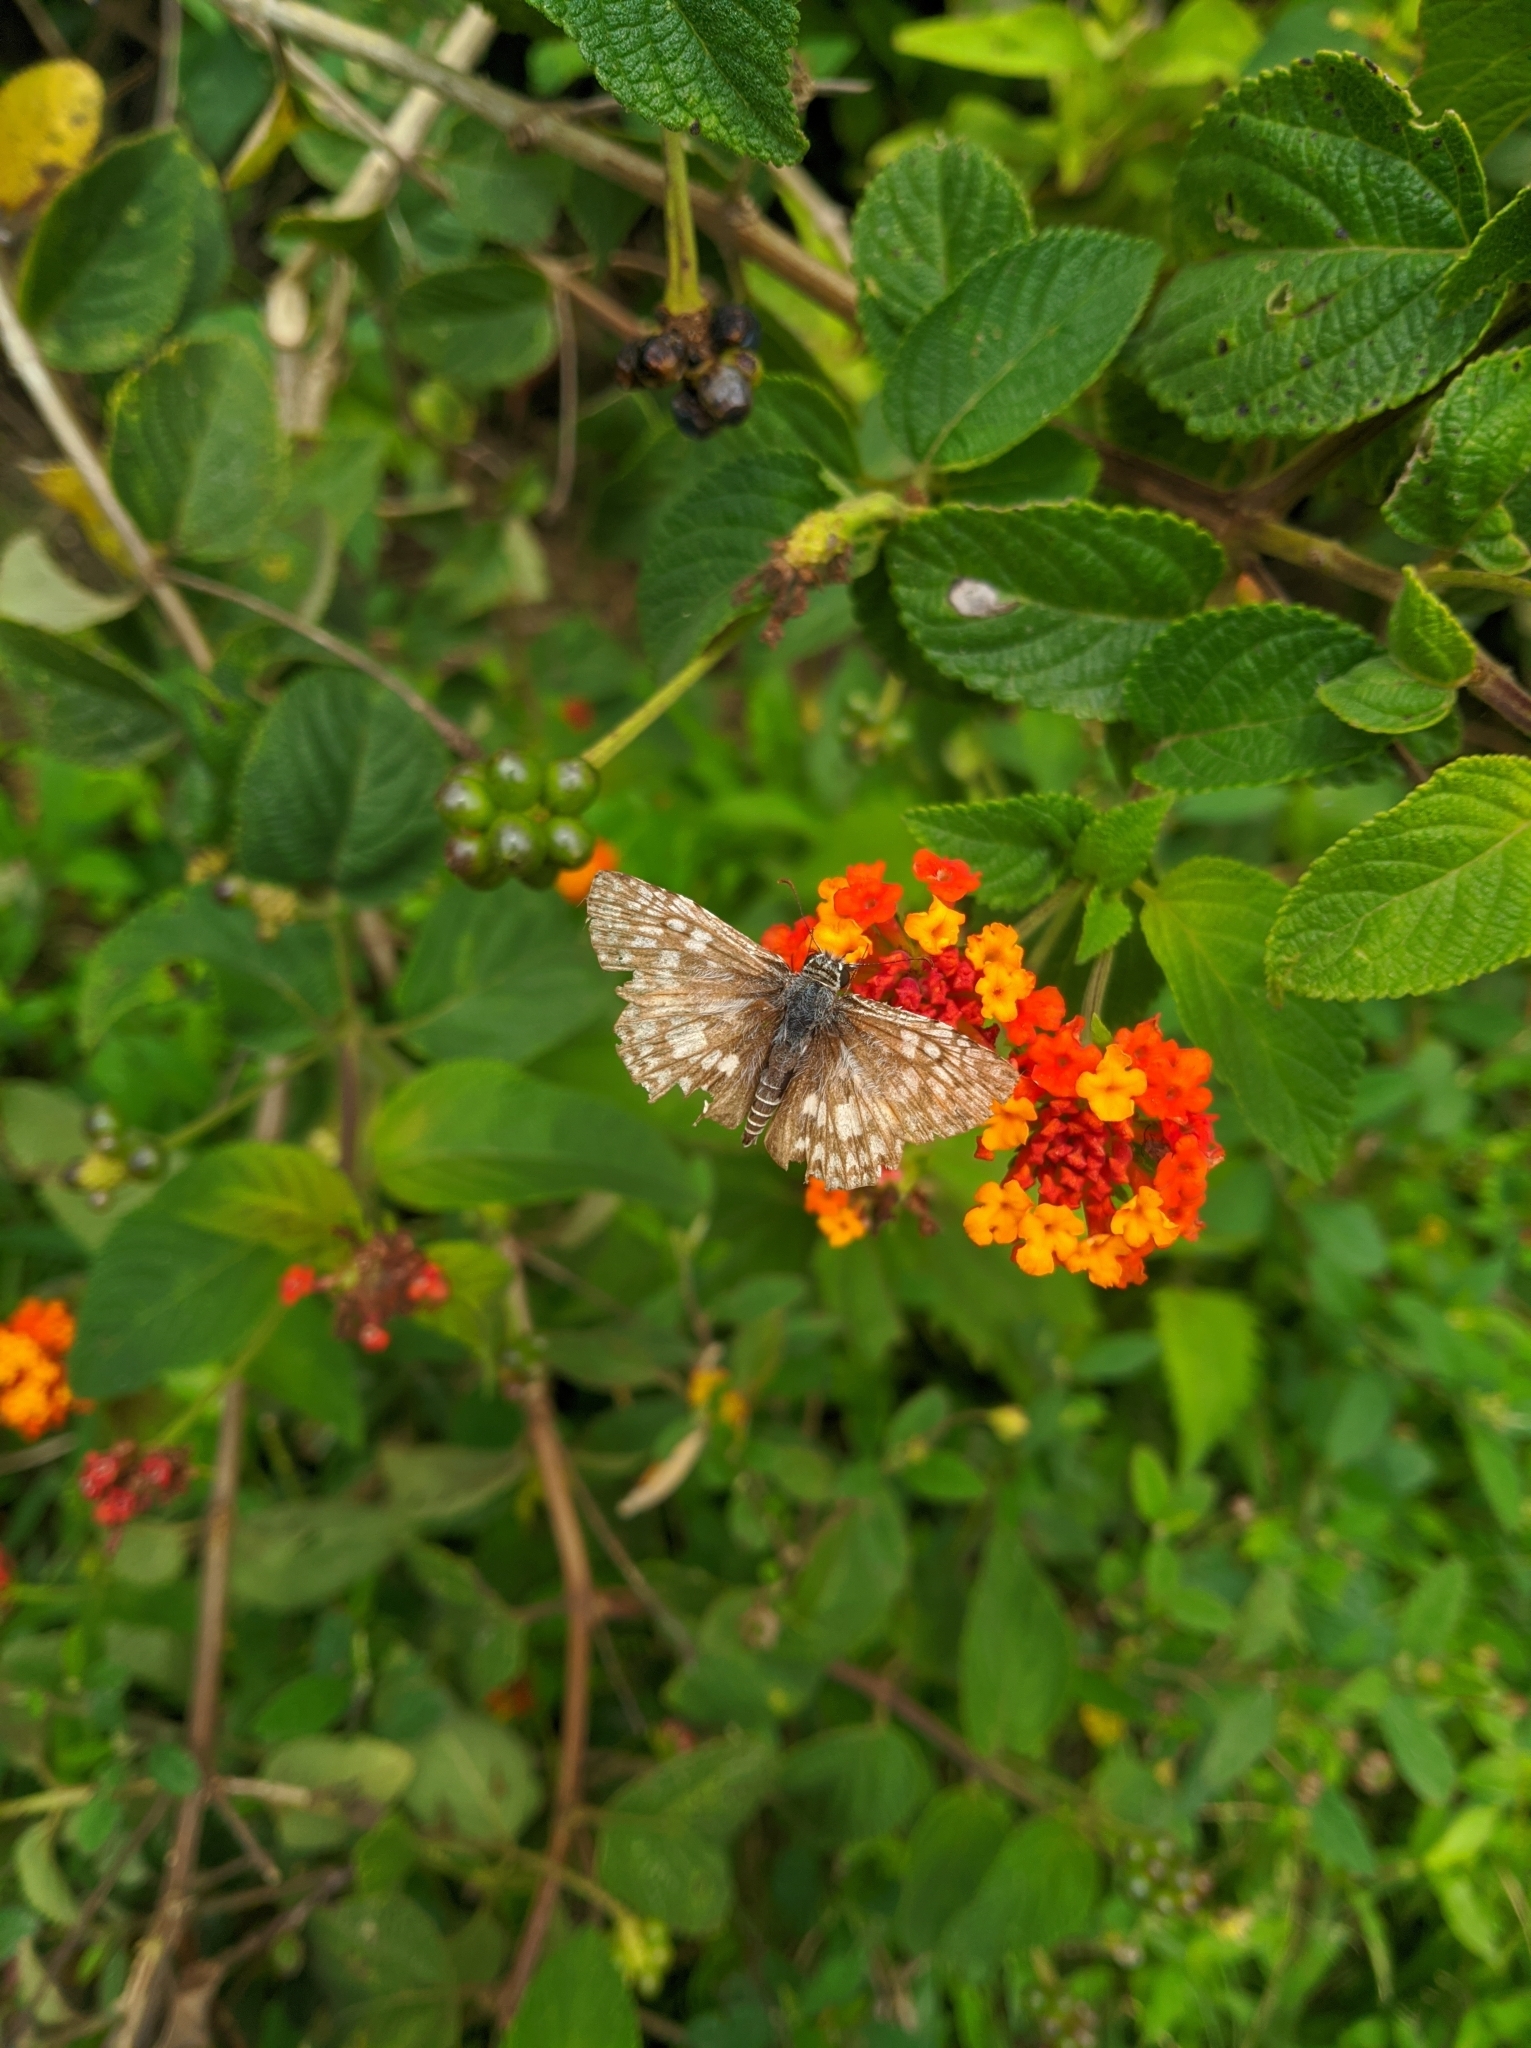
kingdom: Animalia
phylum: Arthropoda
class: Insecta
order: Lepidoptera
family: Hesperiidae
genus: Pyrgus
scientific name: Pyrgus oileus
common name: Tropical checkered-skipper
